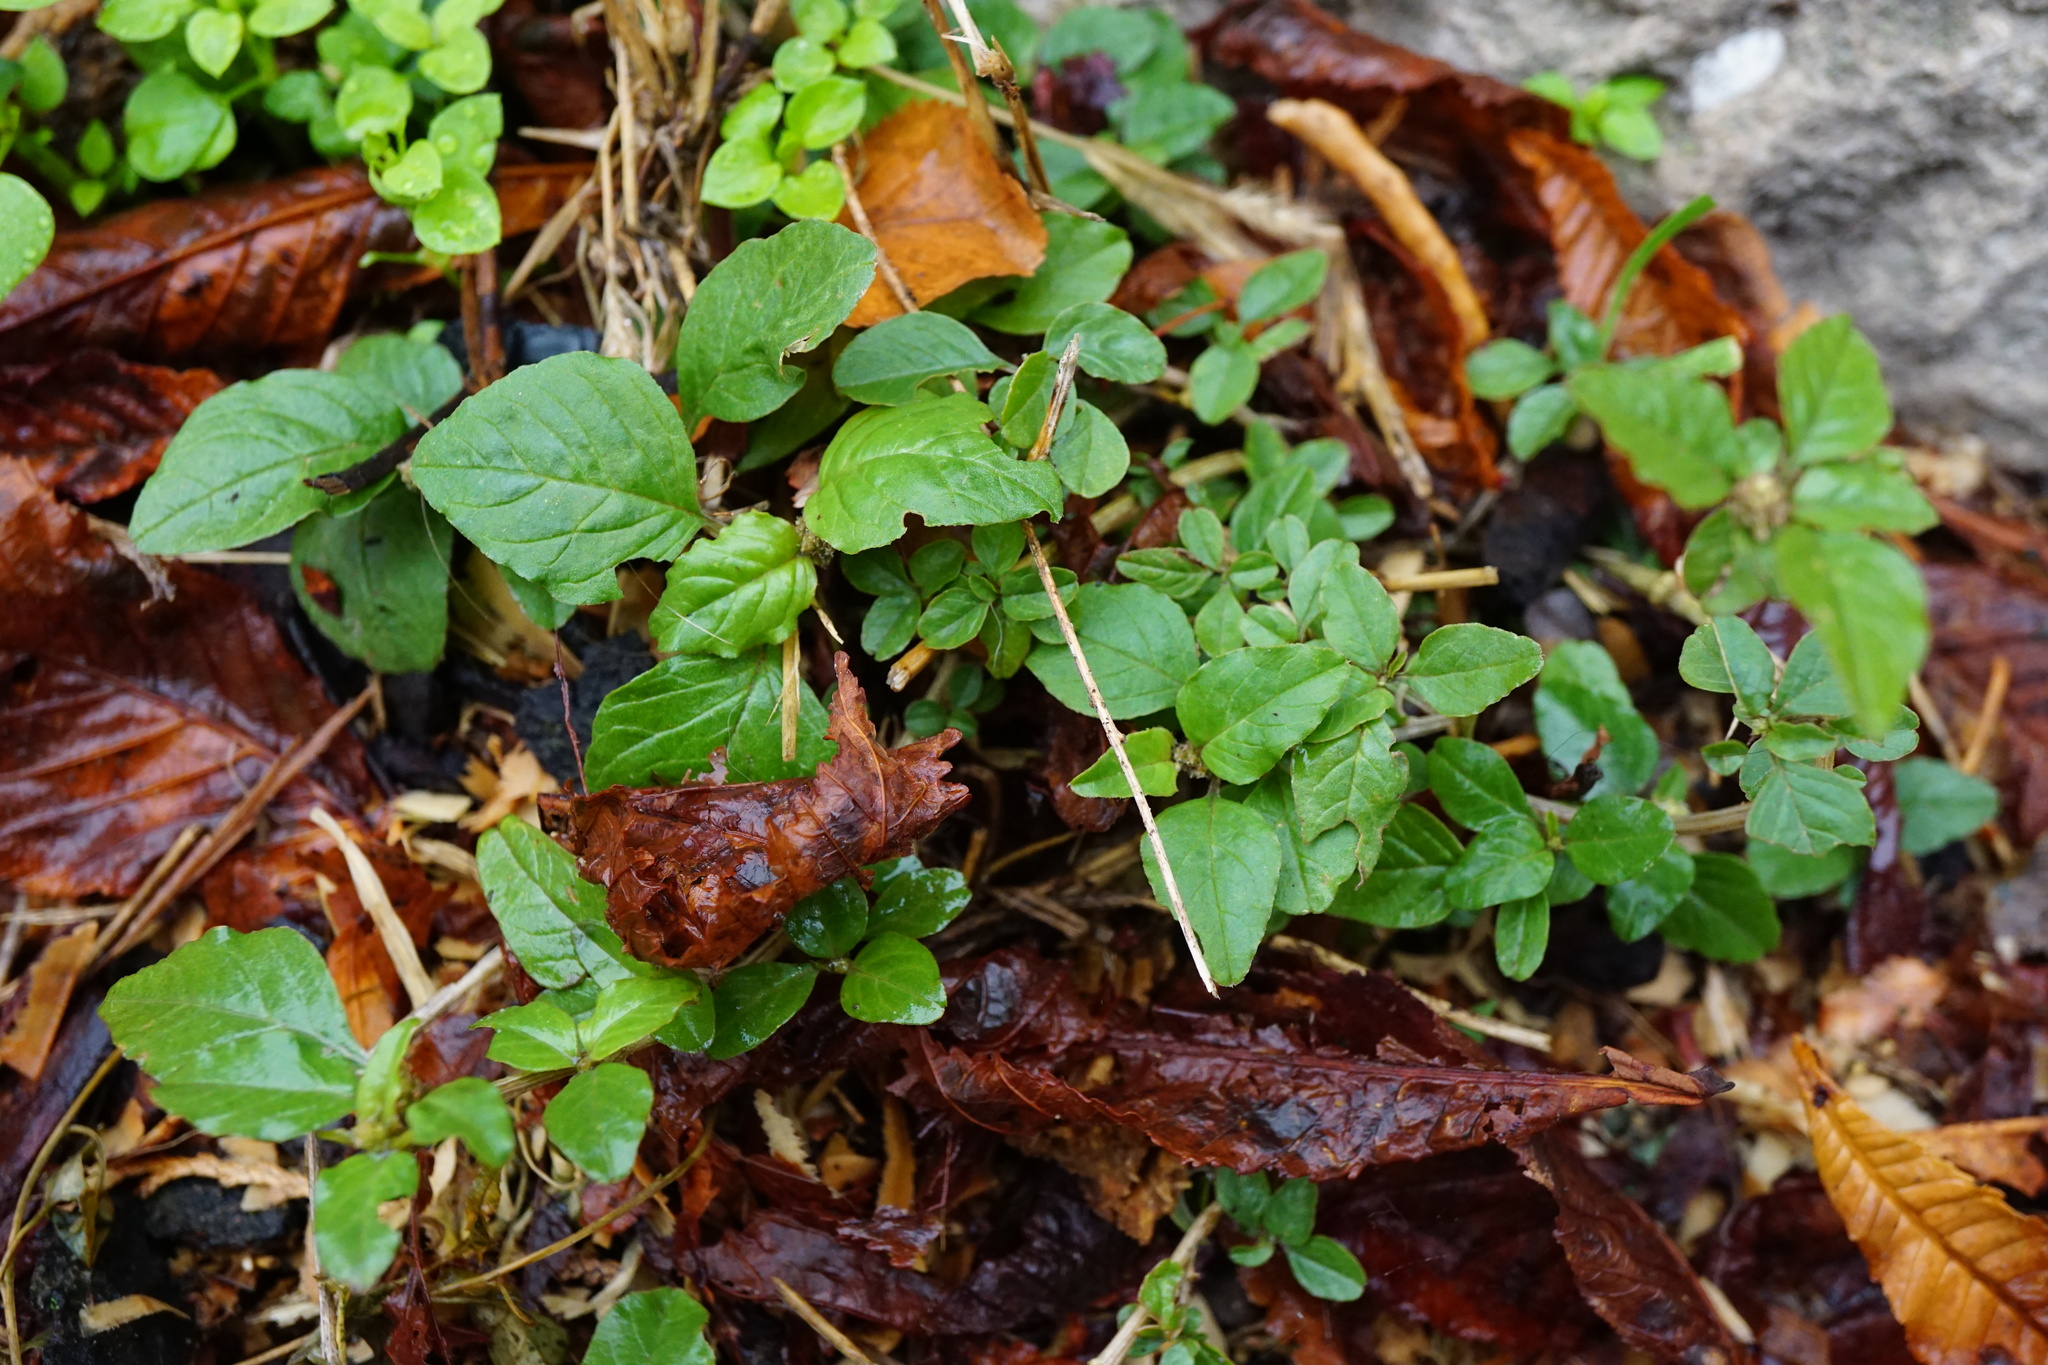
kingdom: Plantae
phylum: Tracheophyta
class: Magnoliopsida
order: Caryophyllales
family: Amaranthaceae
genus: Amaranthus
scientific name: Amaranthus deflexus
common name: Perennial pigweed
